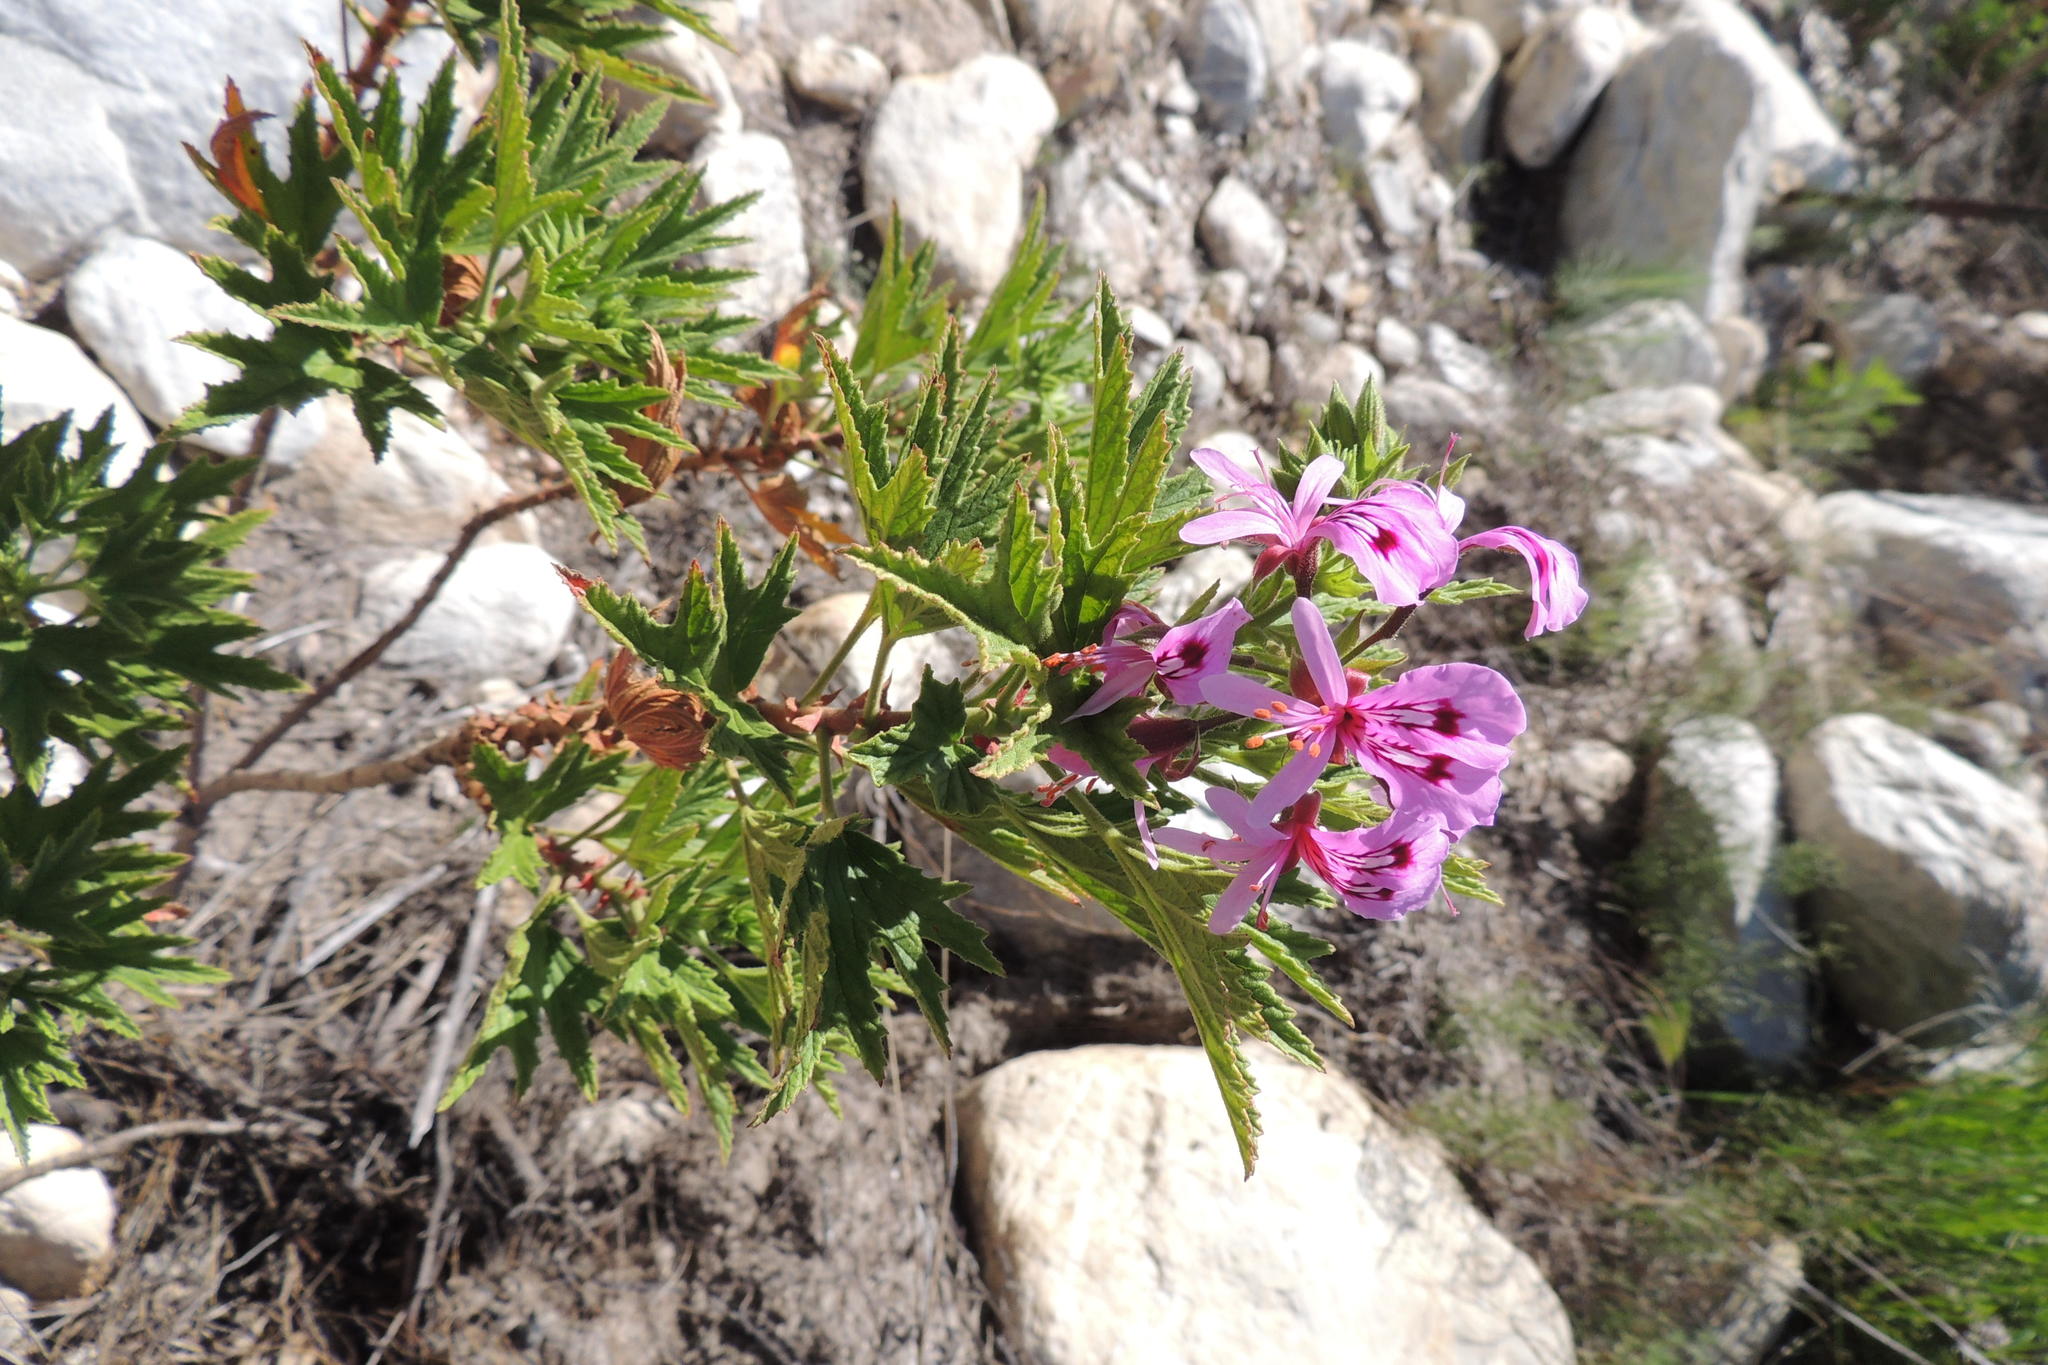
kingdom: Plantae
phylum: Tracheophyta
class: Magnoliopsida
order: Geraniales
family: Geraniaceae
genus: Pelargonium
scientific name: Pelargonium citronellum
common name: Lemon-scent pelargonium
